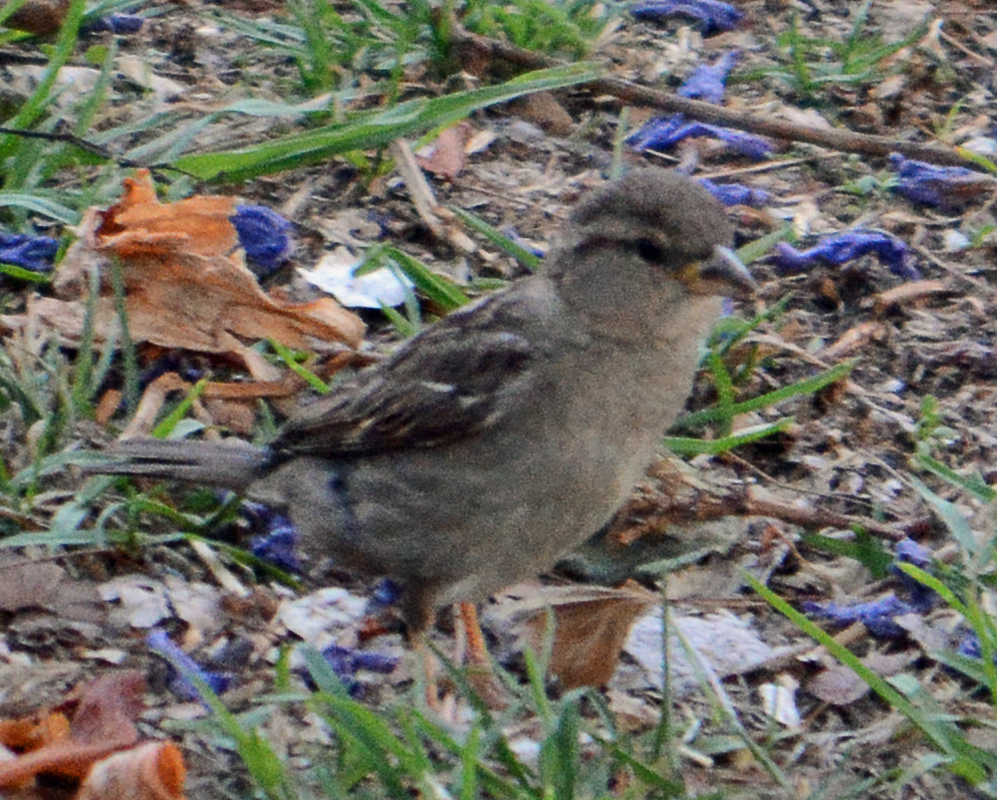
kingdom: Animalia
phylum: Chordata
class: Aves
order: Passeriformes
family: Passeridae
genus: Passer
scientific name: Passer domesticus
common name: House sparrow
